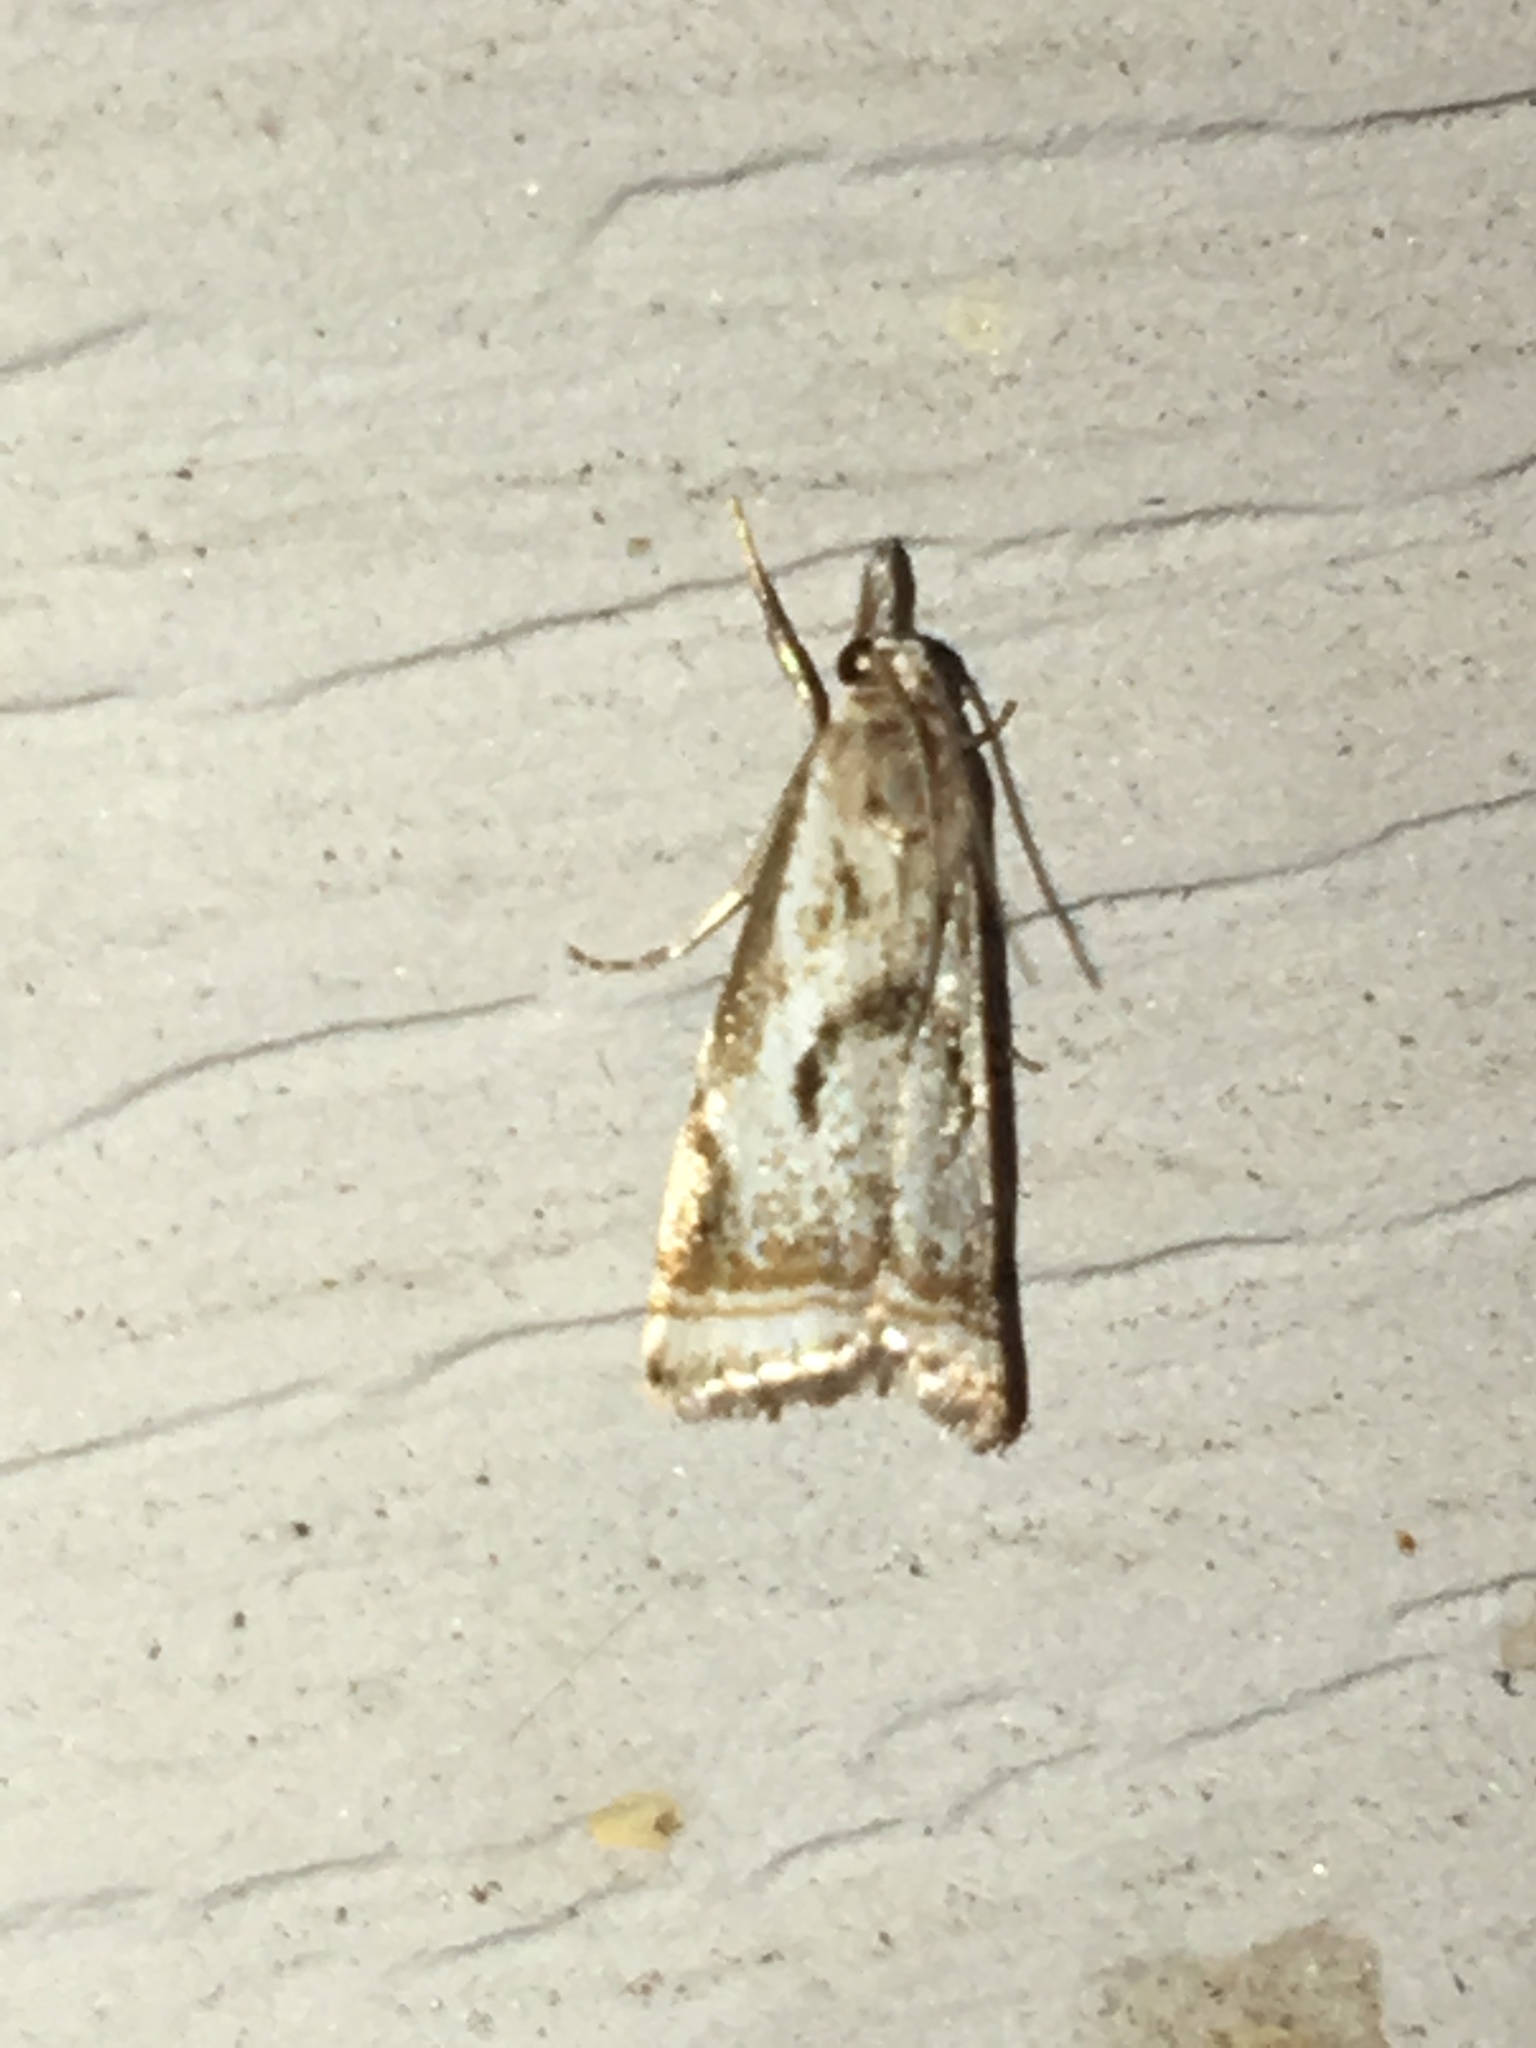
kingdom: Animalia
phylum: Arthropoda
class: Insecta
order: Lepidoptera
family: Crambidae
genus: Microcrambus
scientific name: Microcrambus elegans
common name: Elegant grass-veneer
